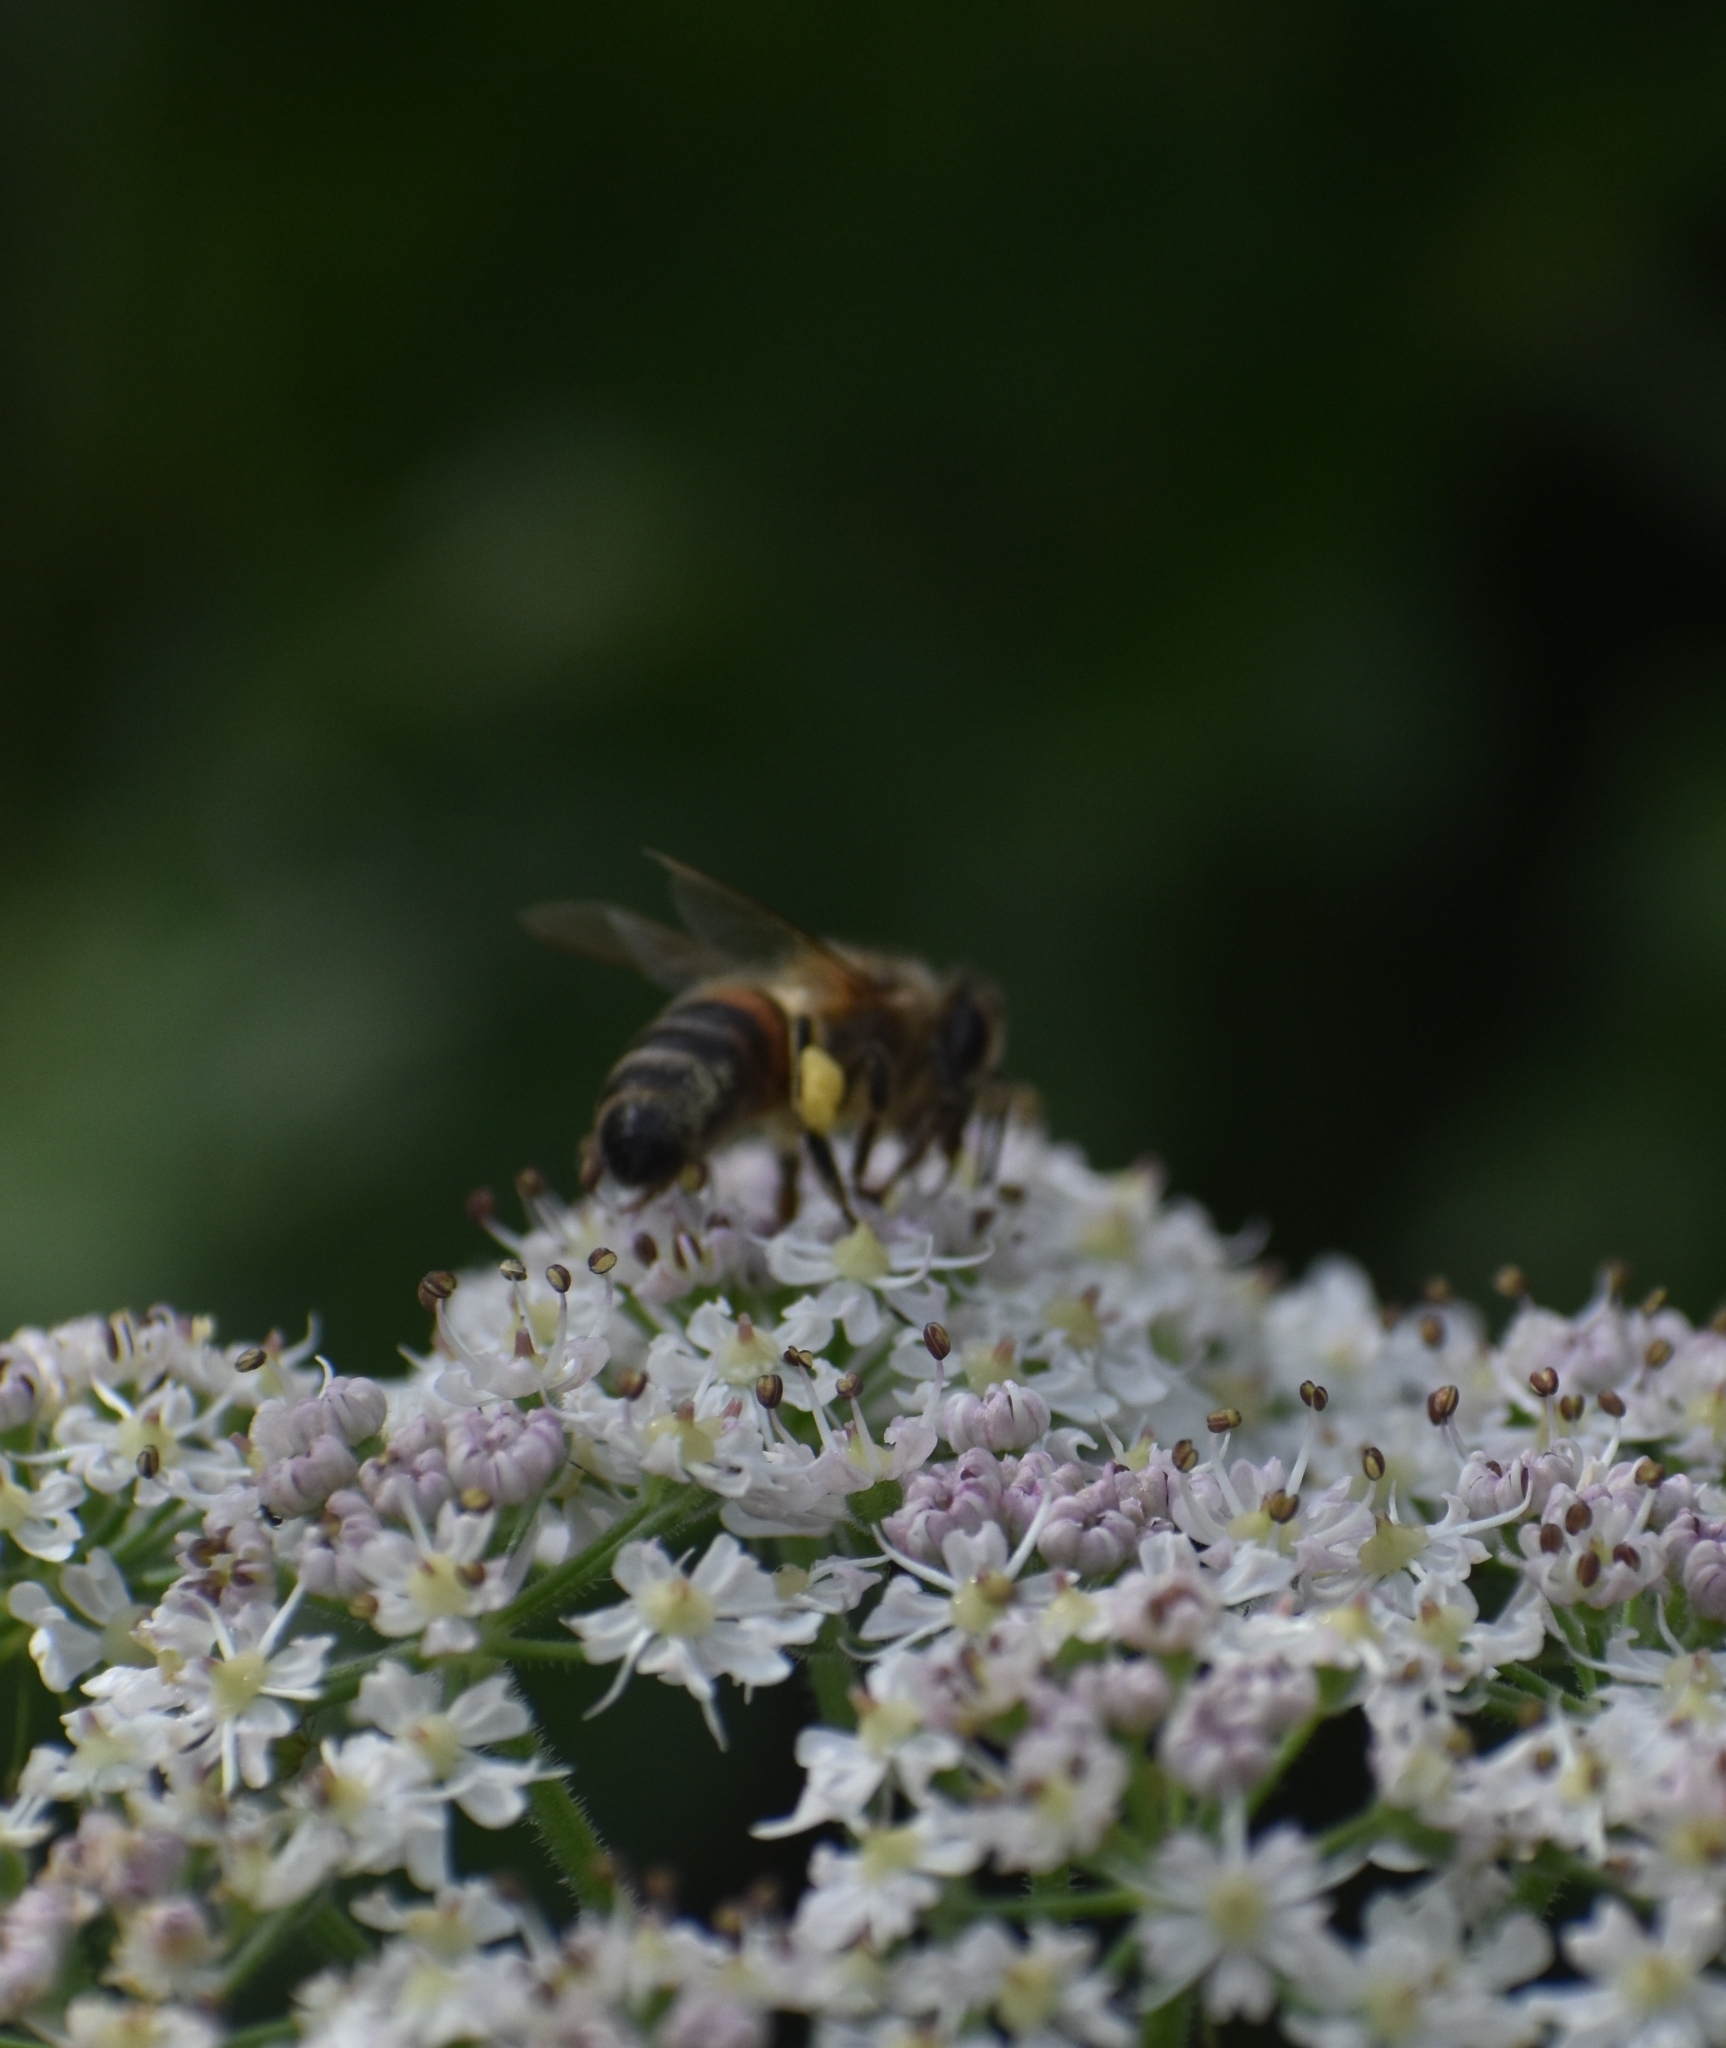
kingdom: Animalia
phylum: Arthropoda
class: Insecta
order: Hymenoptera
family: Apidae
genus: Apis
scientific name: Apis mellifera
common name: Honey bee
